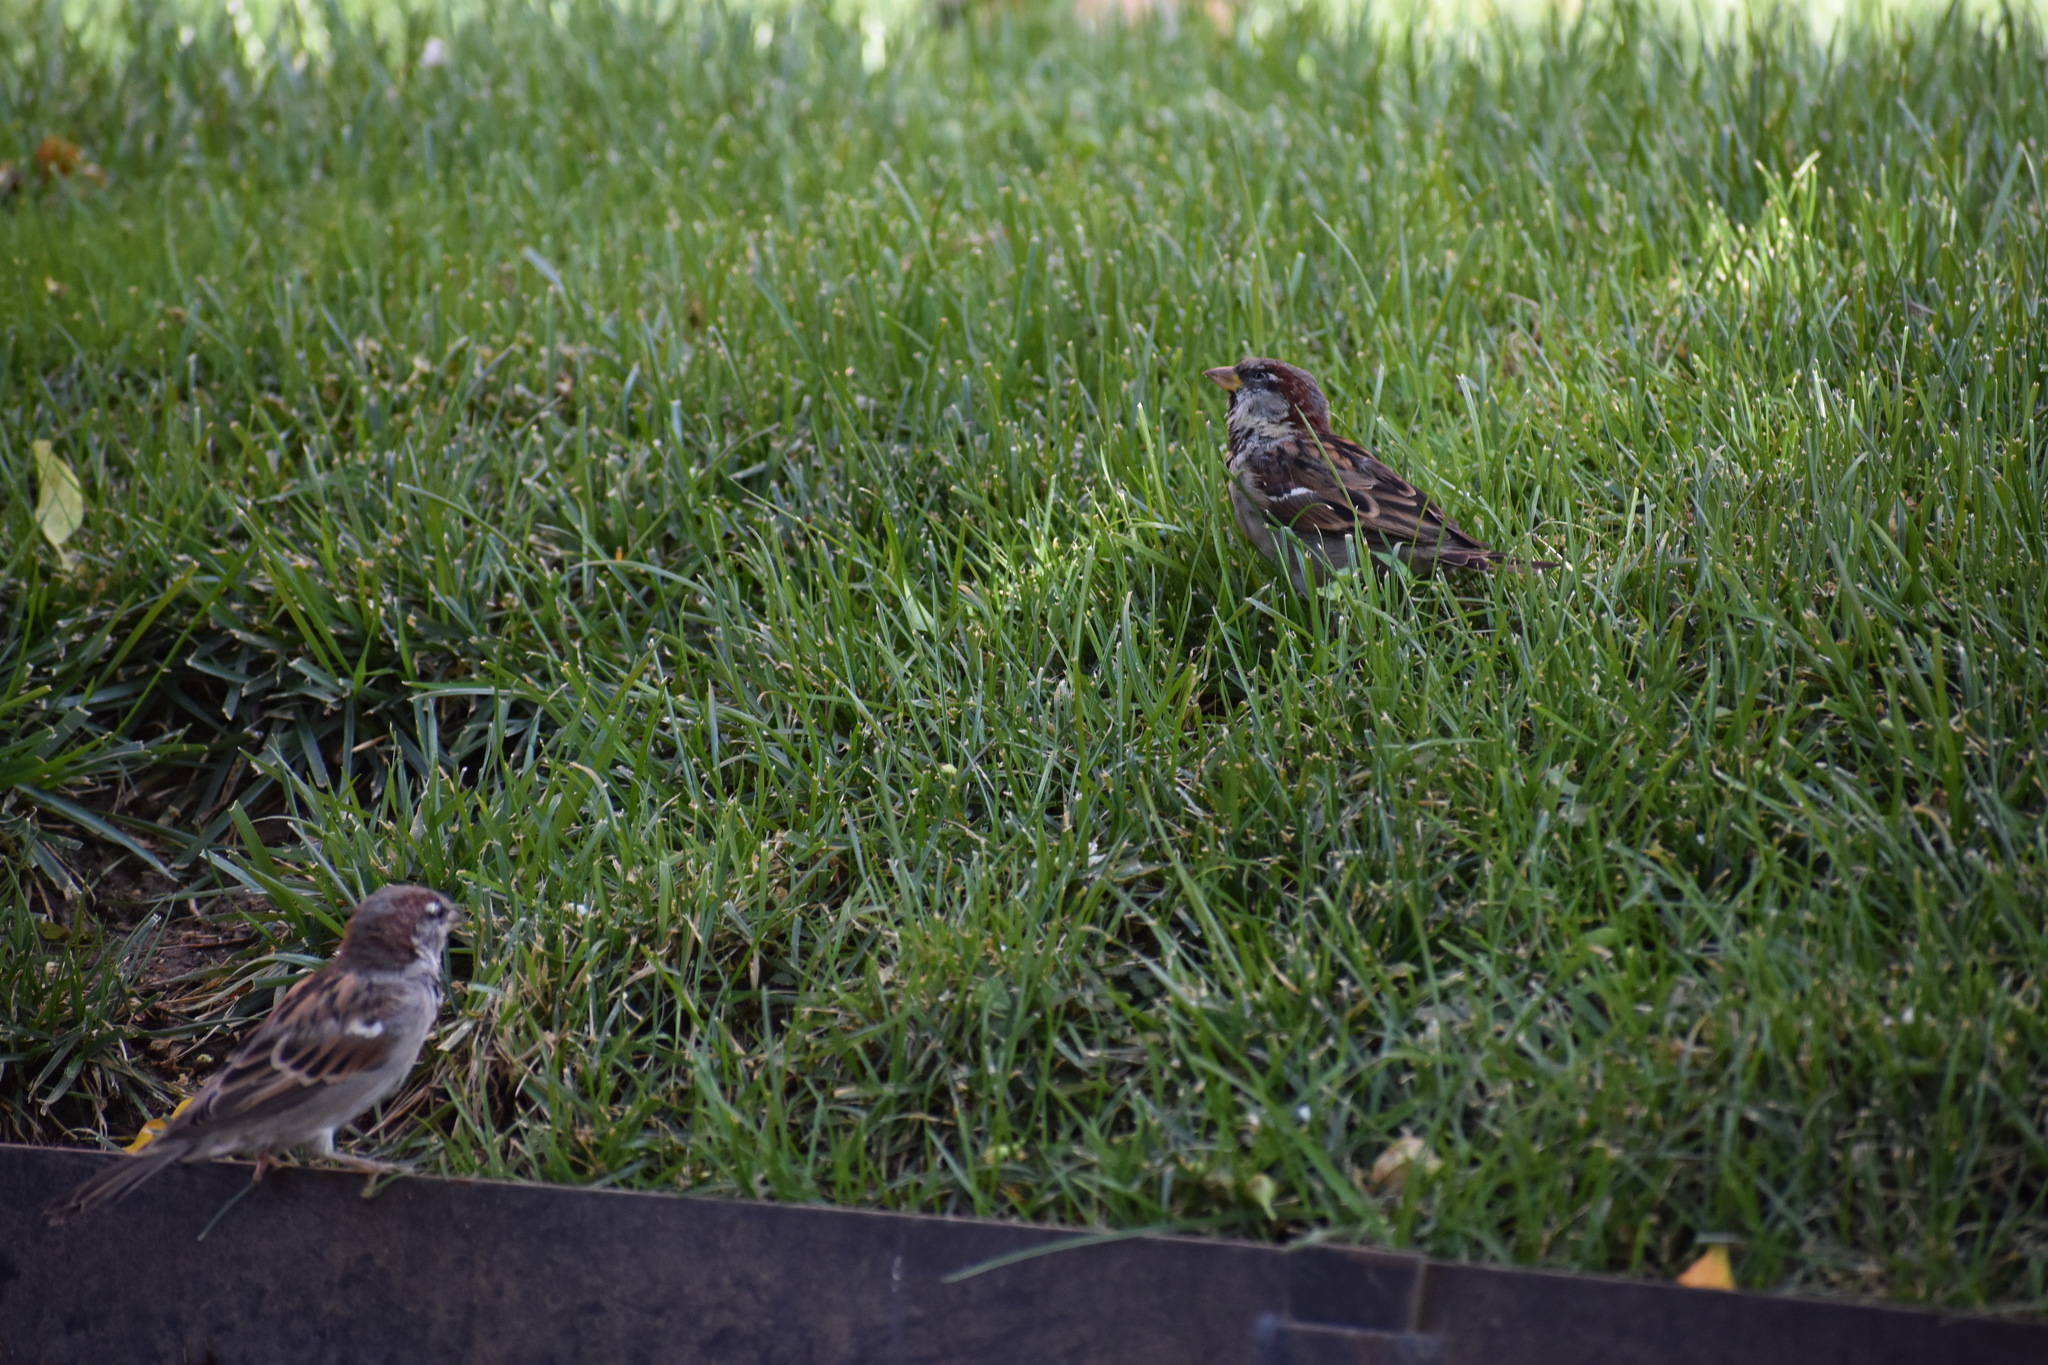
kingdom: Animalia
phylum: Chordata
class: Aves
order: Passeriformes
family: Passeridae
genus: Passer
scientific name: Passer domesticus
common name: House sparrow
